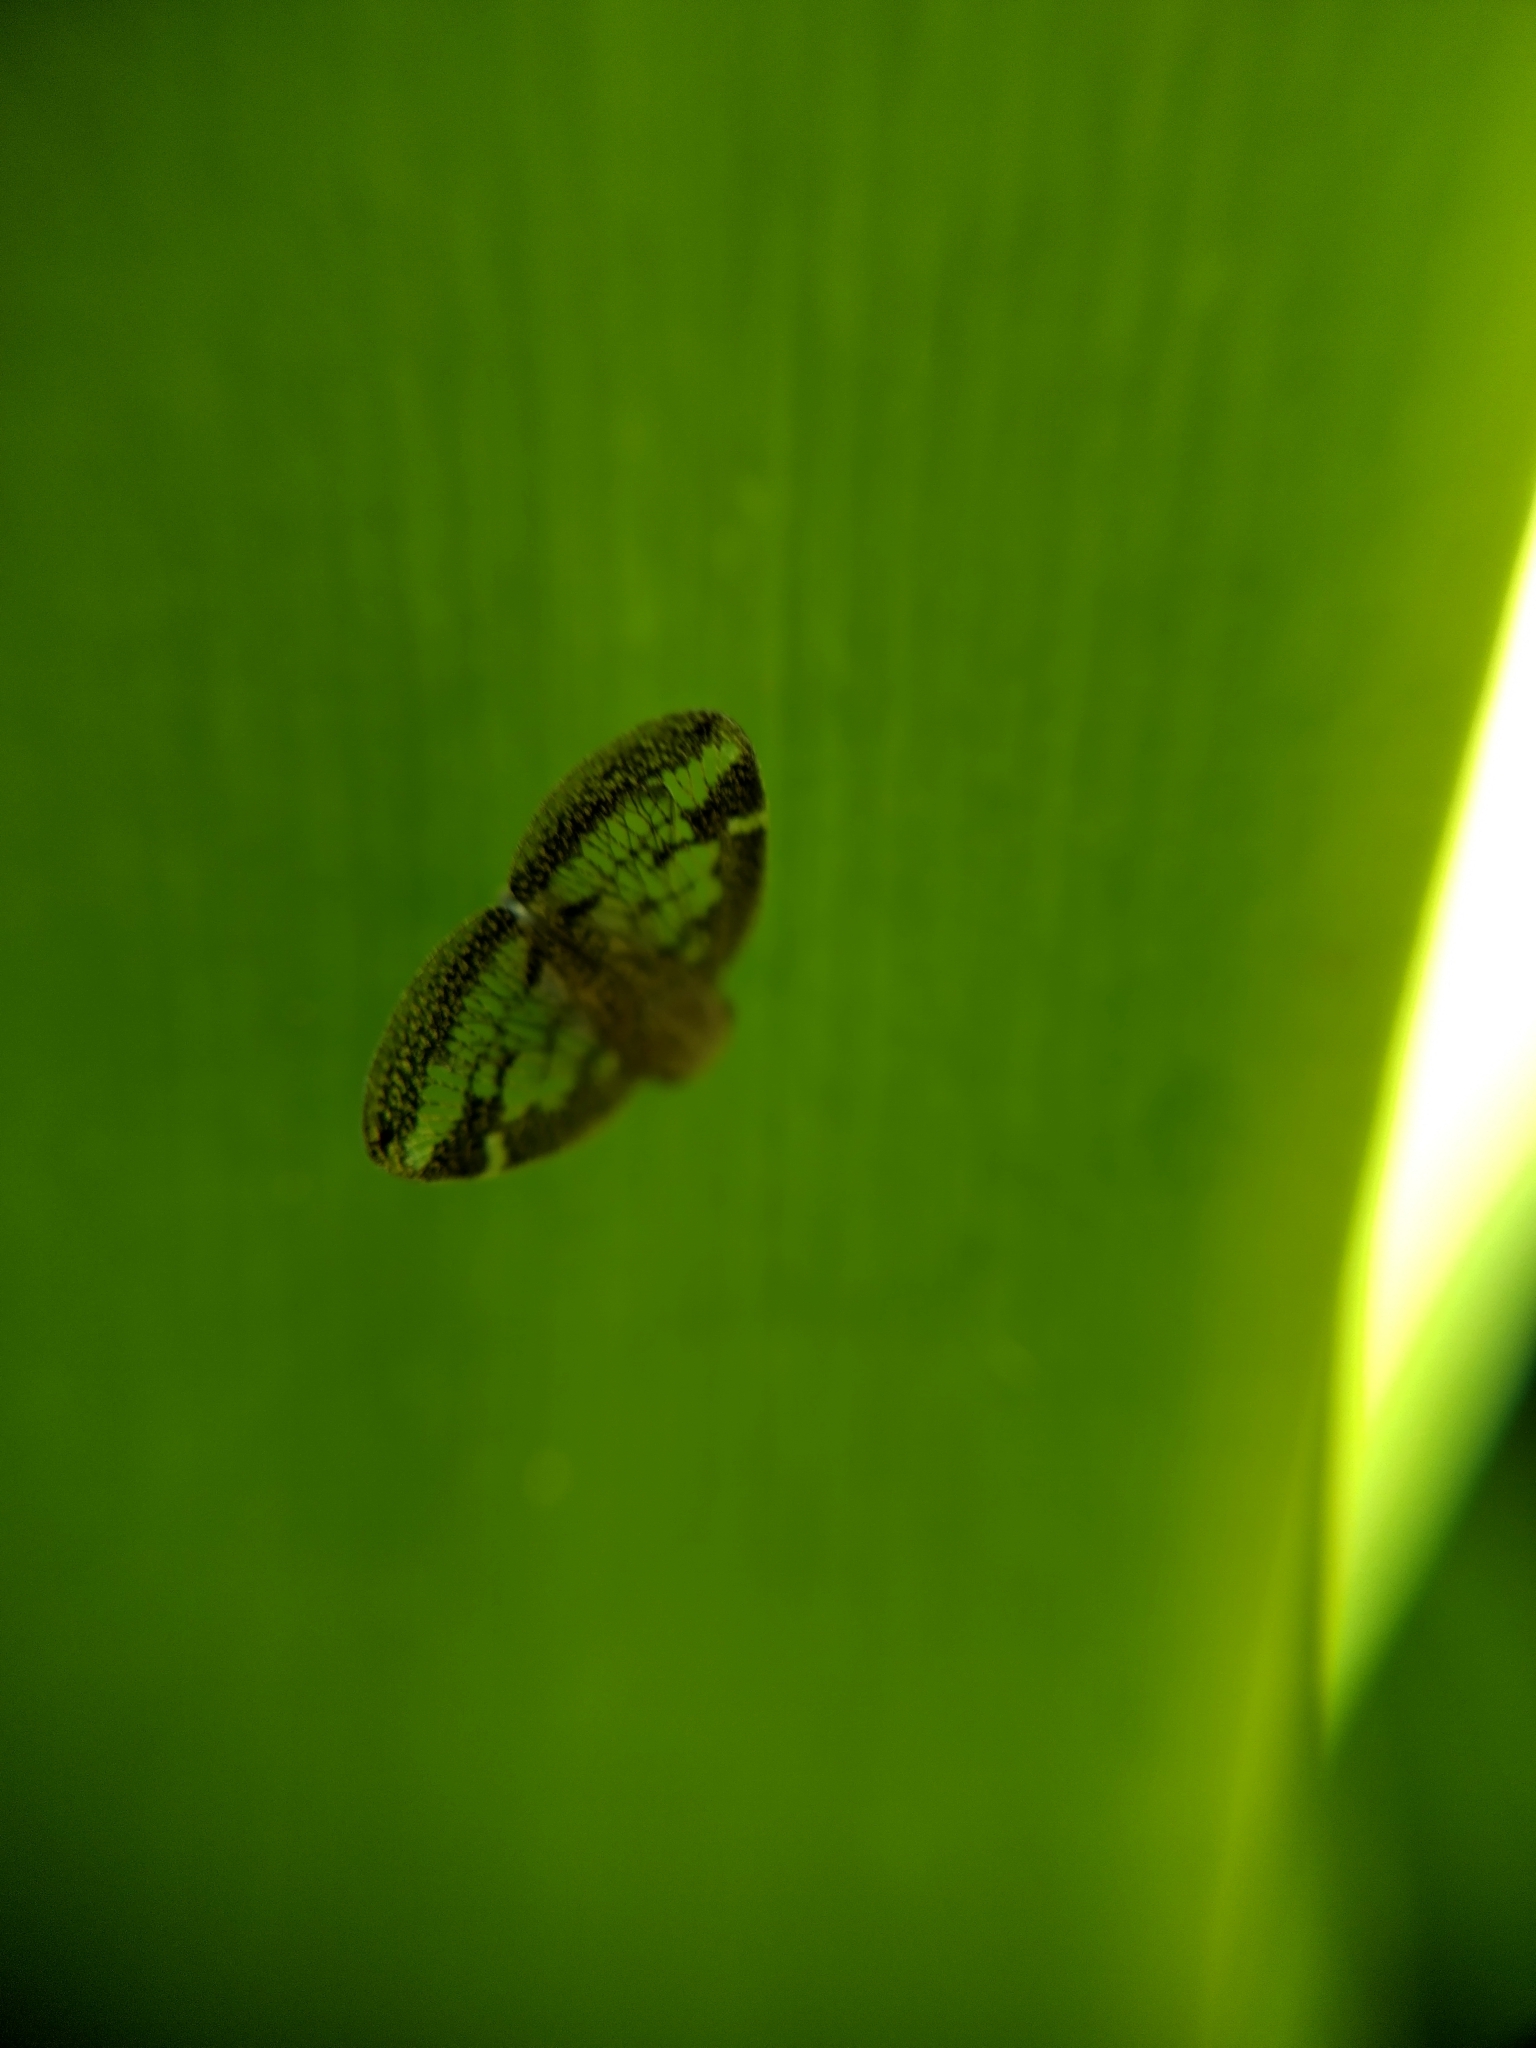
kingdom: Animalia
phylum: Arthropoda
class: Insecta
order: Hemiptera
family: Ricaniidae
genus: Scolypopa
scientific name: Scolypopa australis
